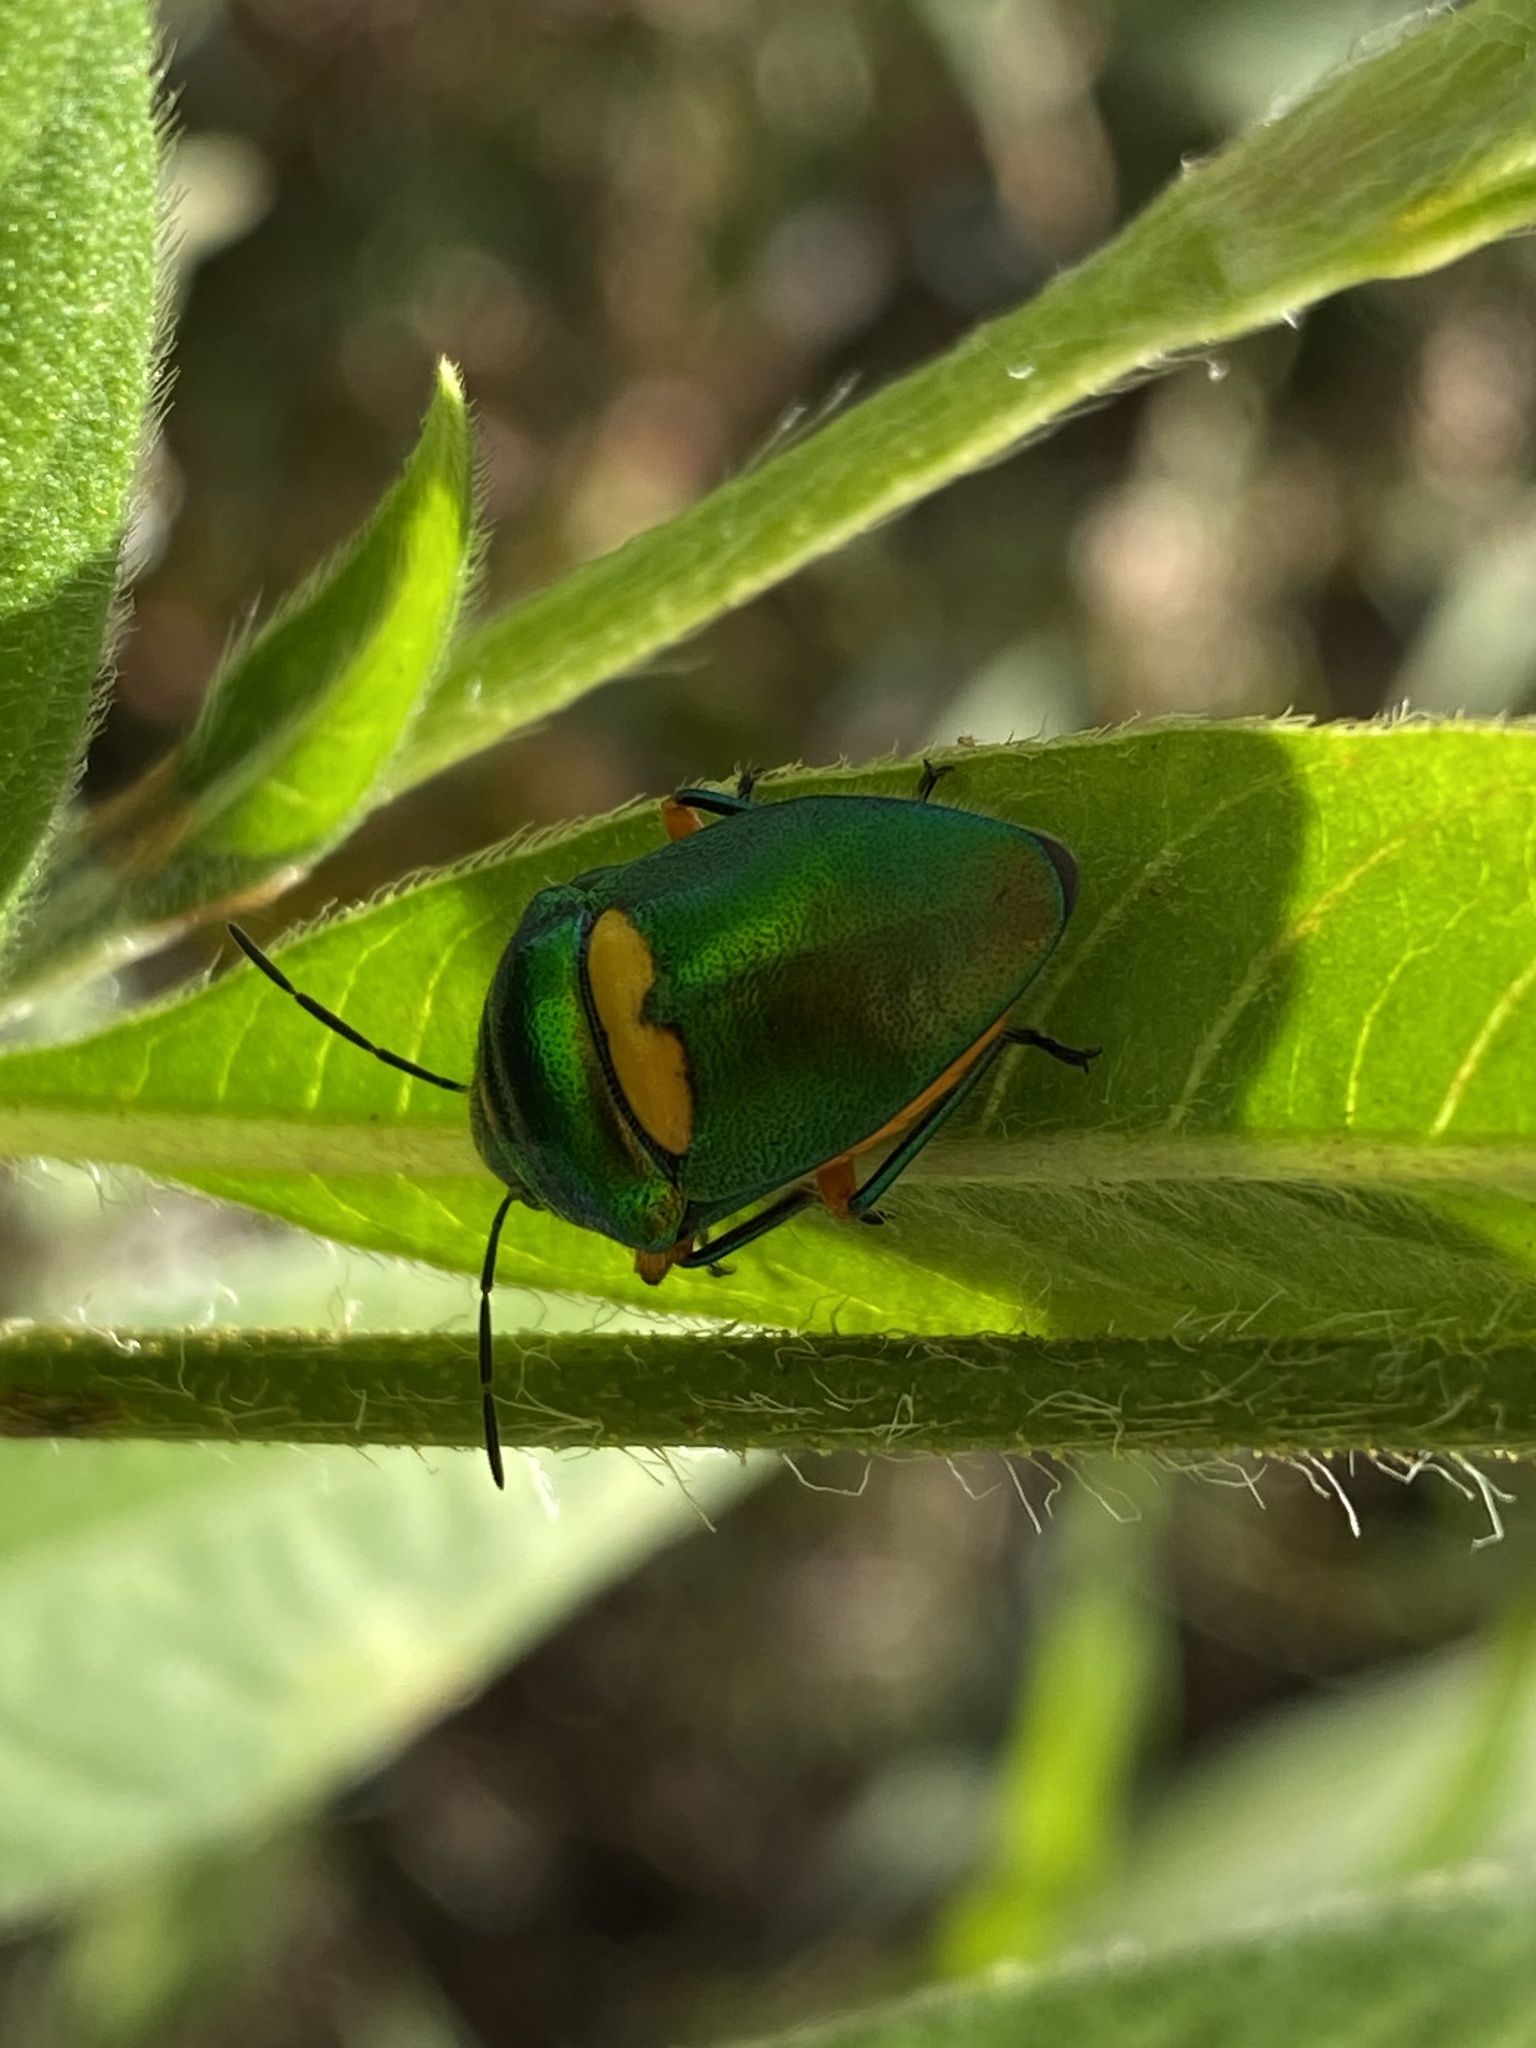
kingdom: Animalia
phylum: Arthropoda
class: Insecta
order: Hemiptera
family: Scutelleridae
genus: Lampromicra
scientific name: Lampromicra senator
